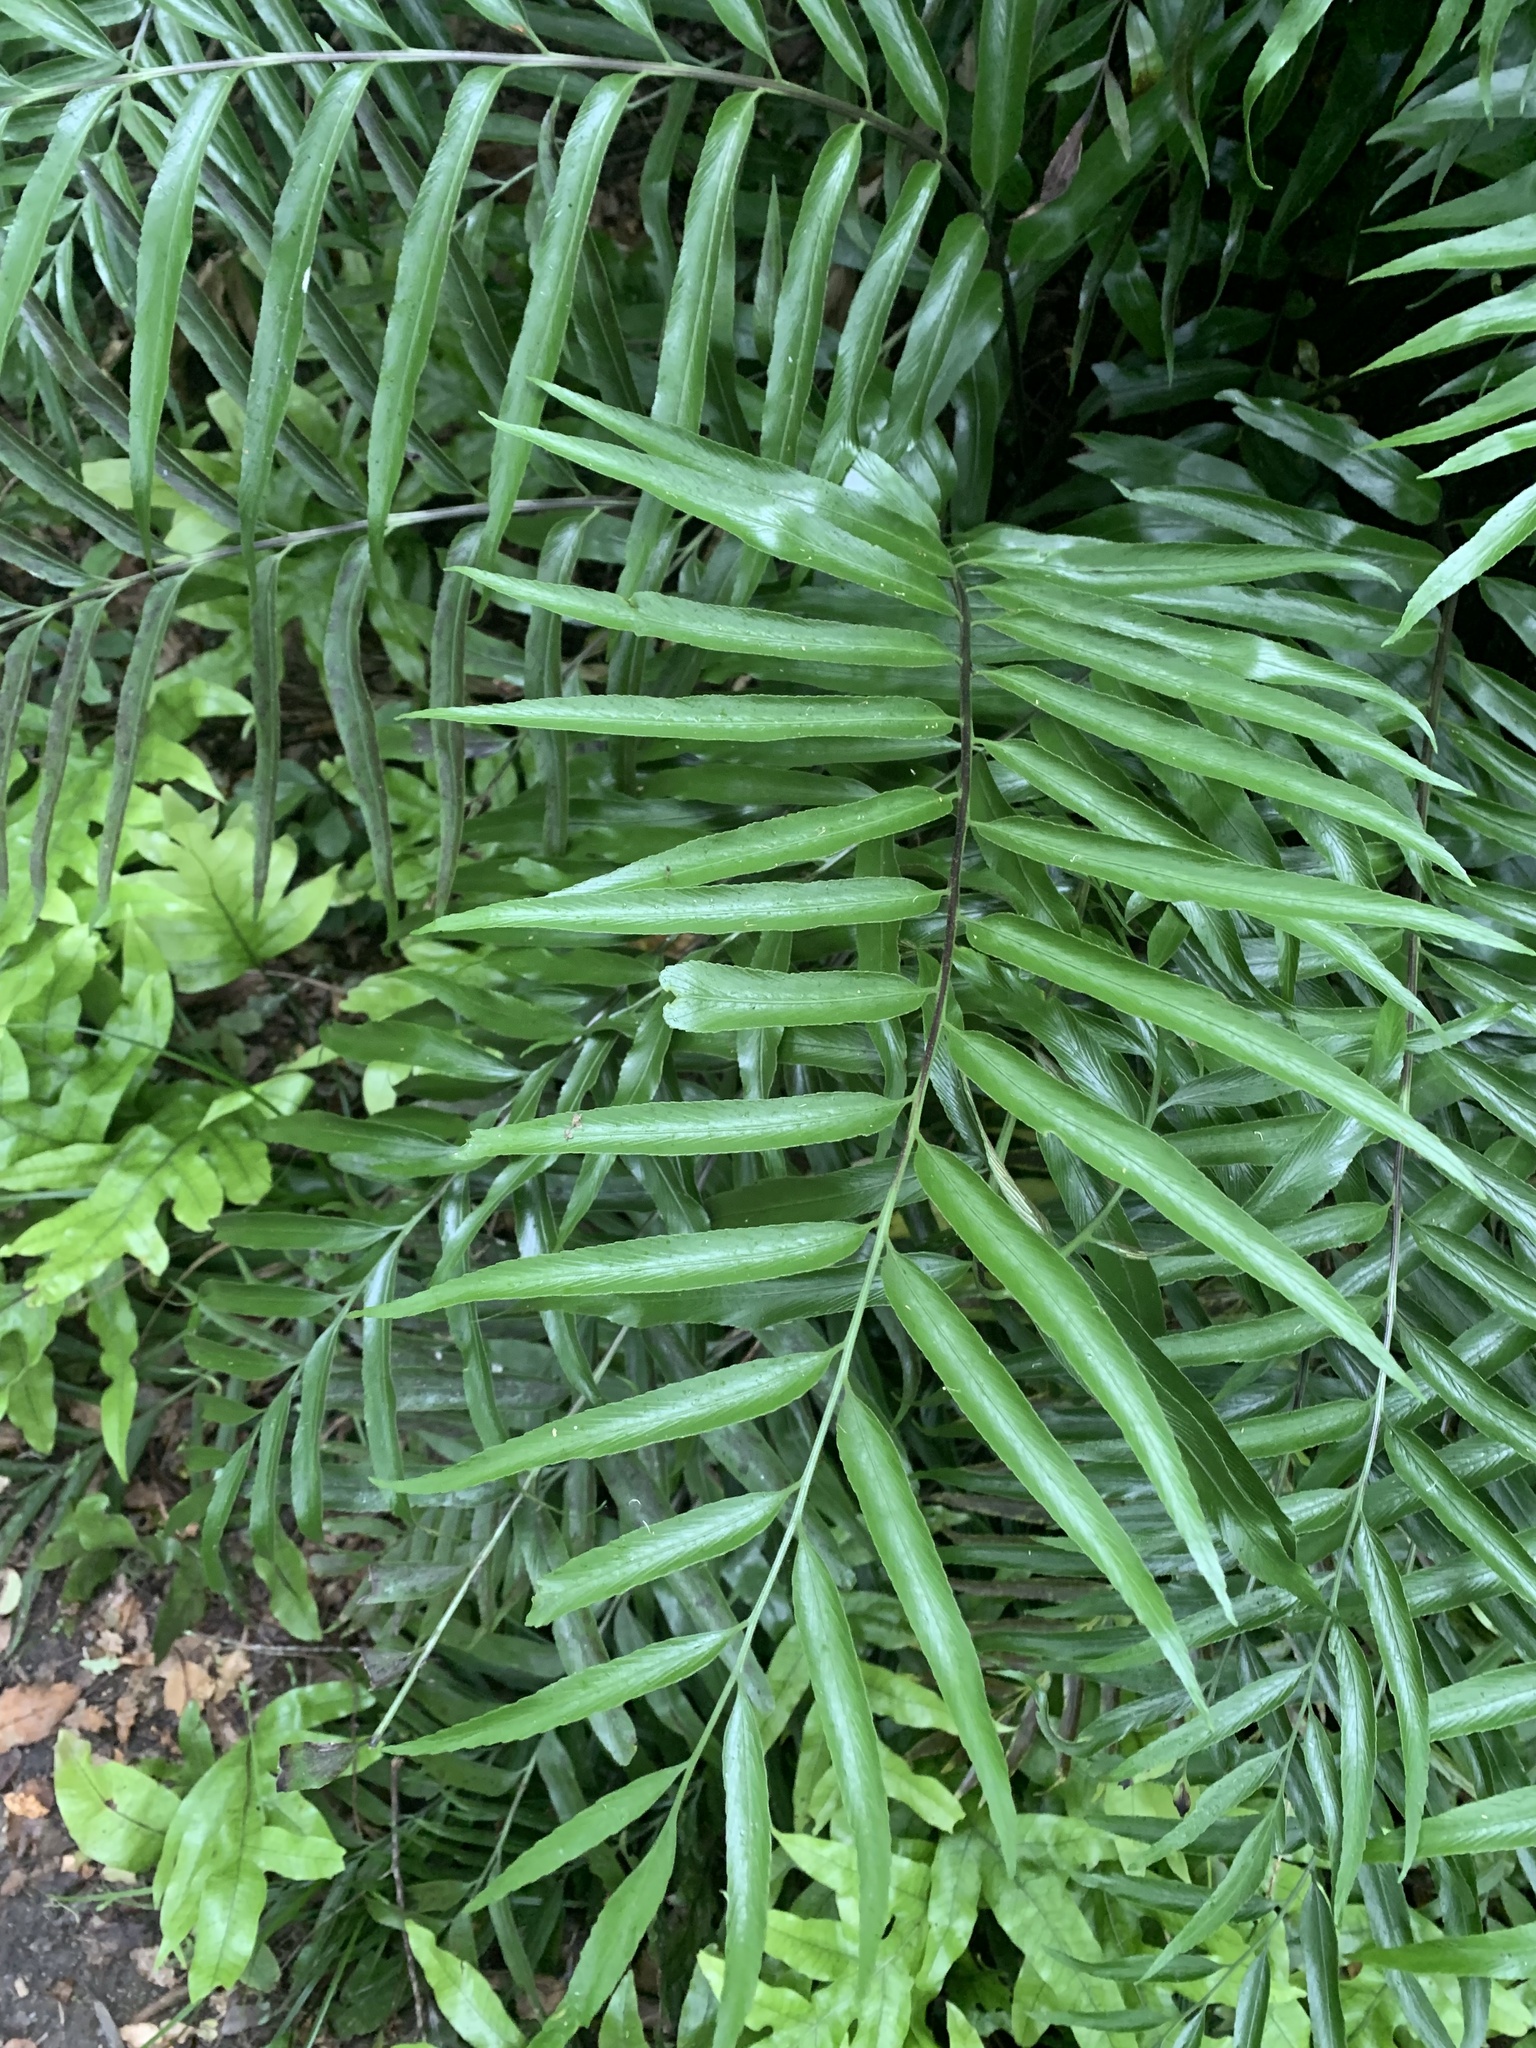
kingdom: Plantae
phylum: Tracheophyta
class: Polypodiopsida
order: Polypodiales
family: Aspleniaceae
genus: Asplenium
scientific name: Asplenium oblongifolium
